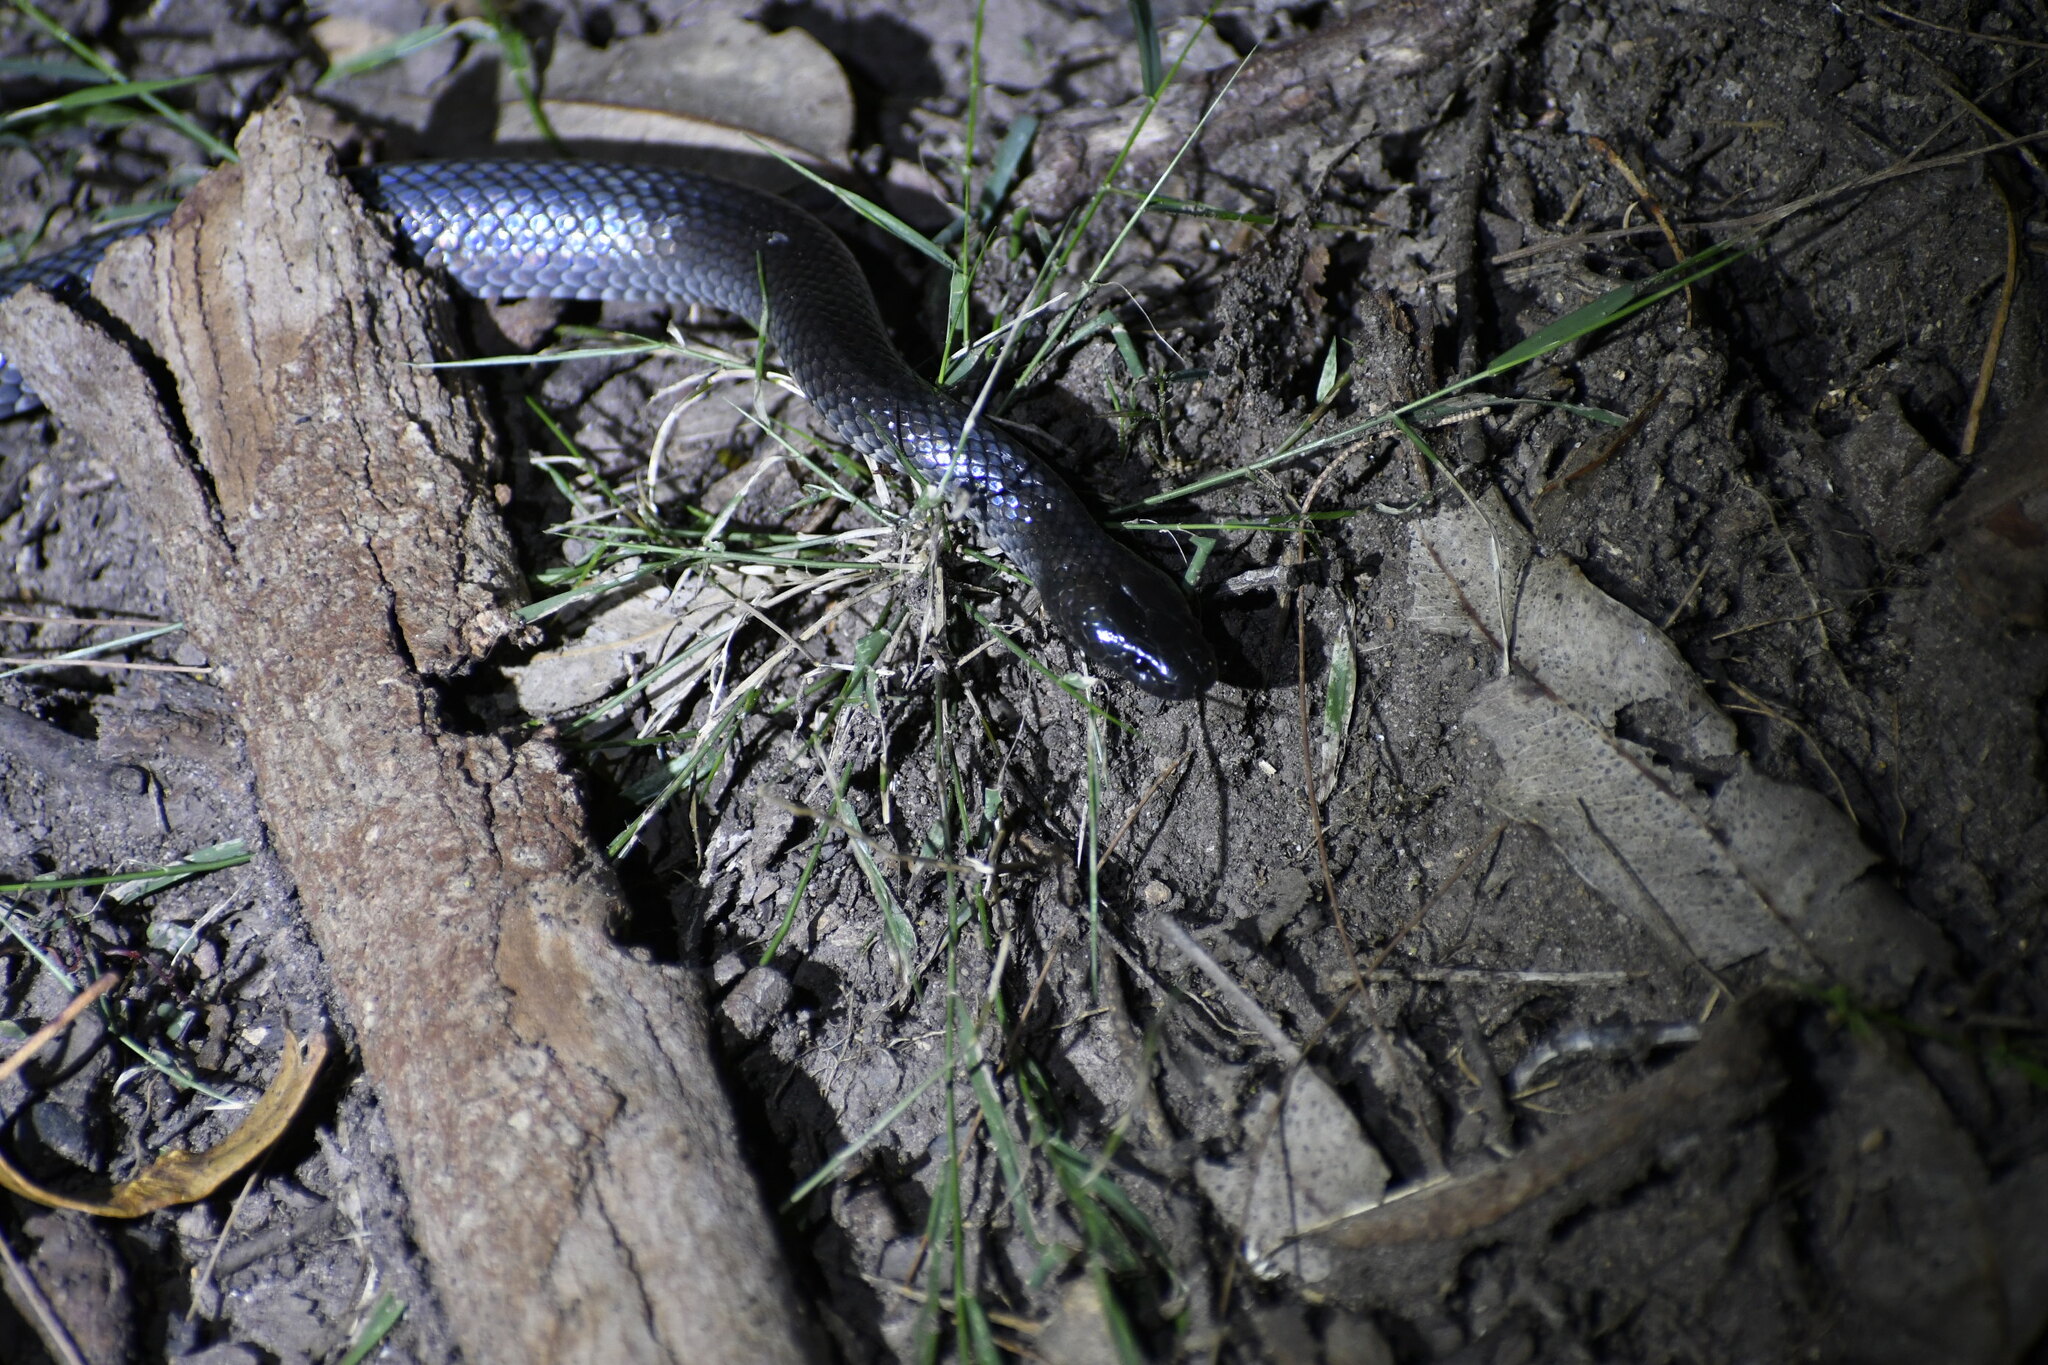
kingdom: Animalia
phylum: Chordata
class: Squamata
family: Elapidae
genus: Cryptophis
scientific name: Cryptophis nigrescens
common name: Eastern small-eyed snake
